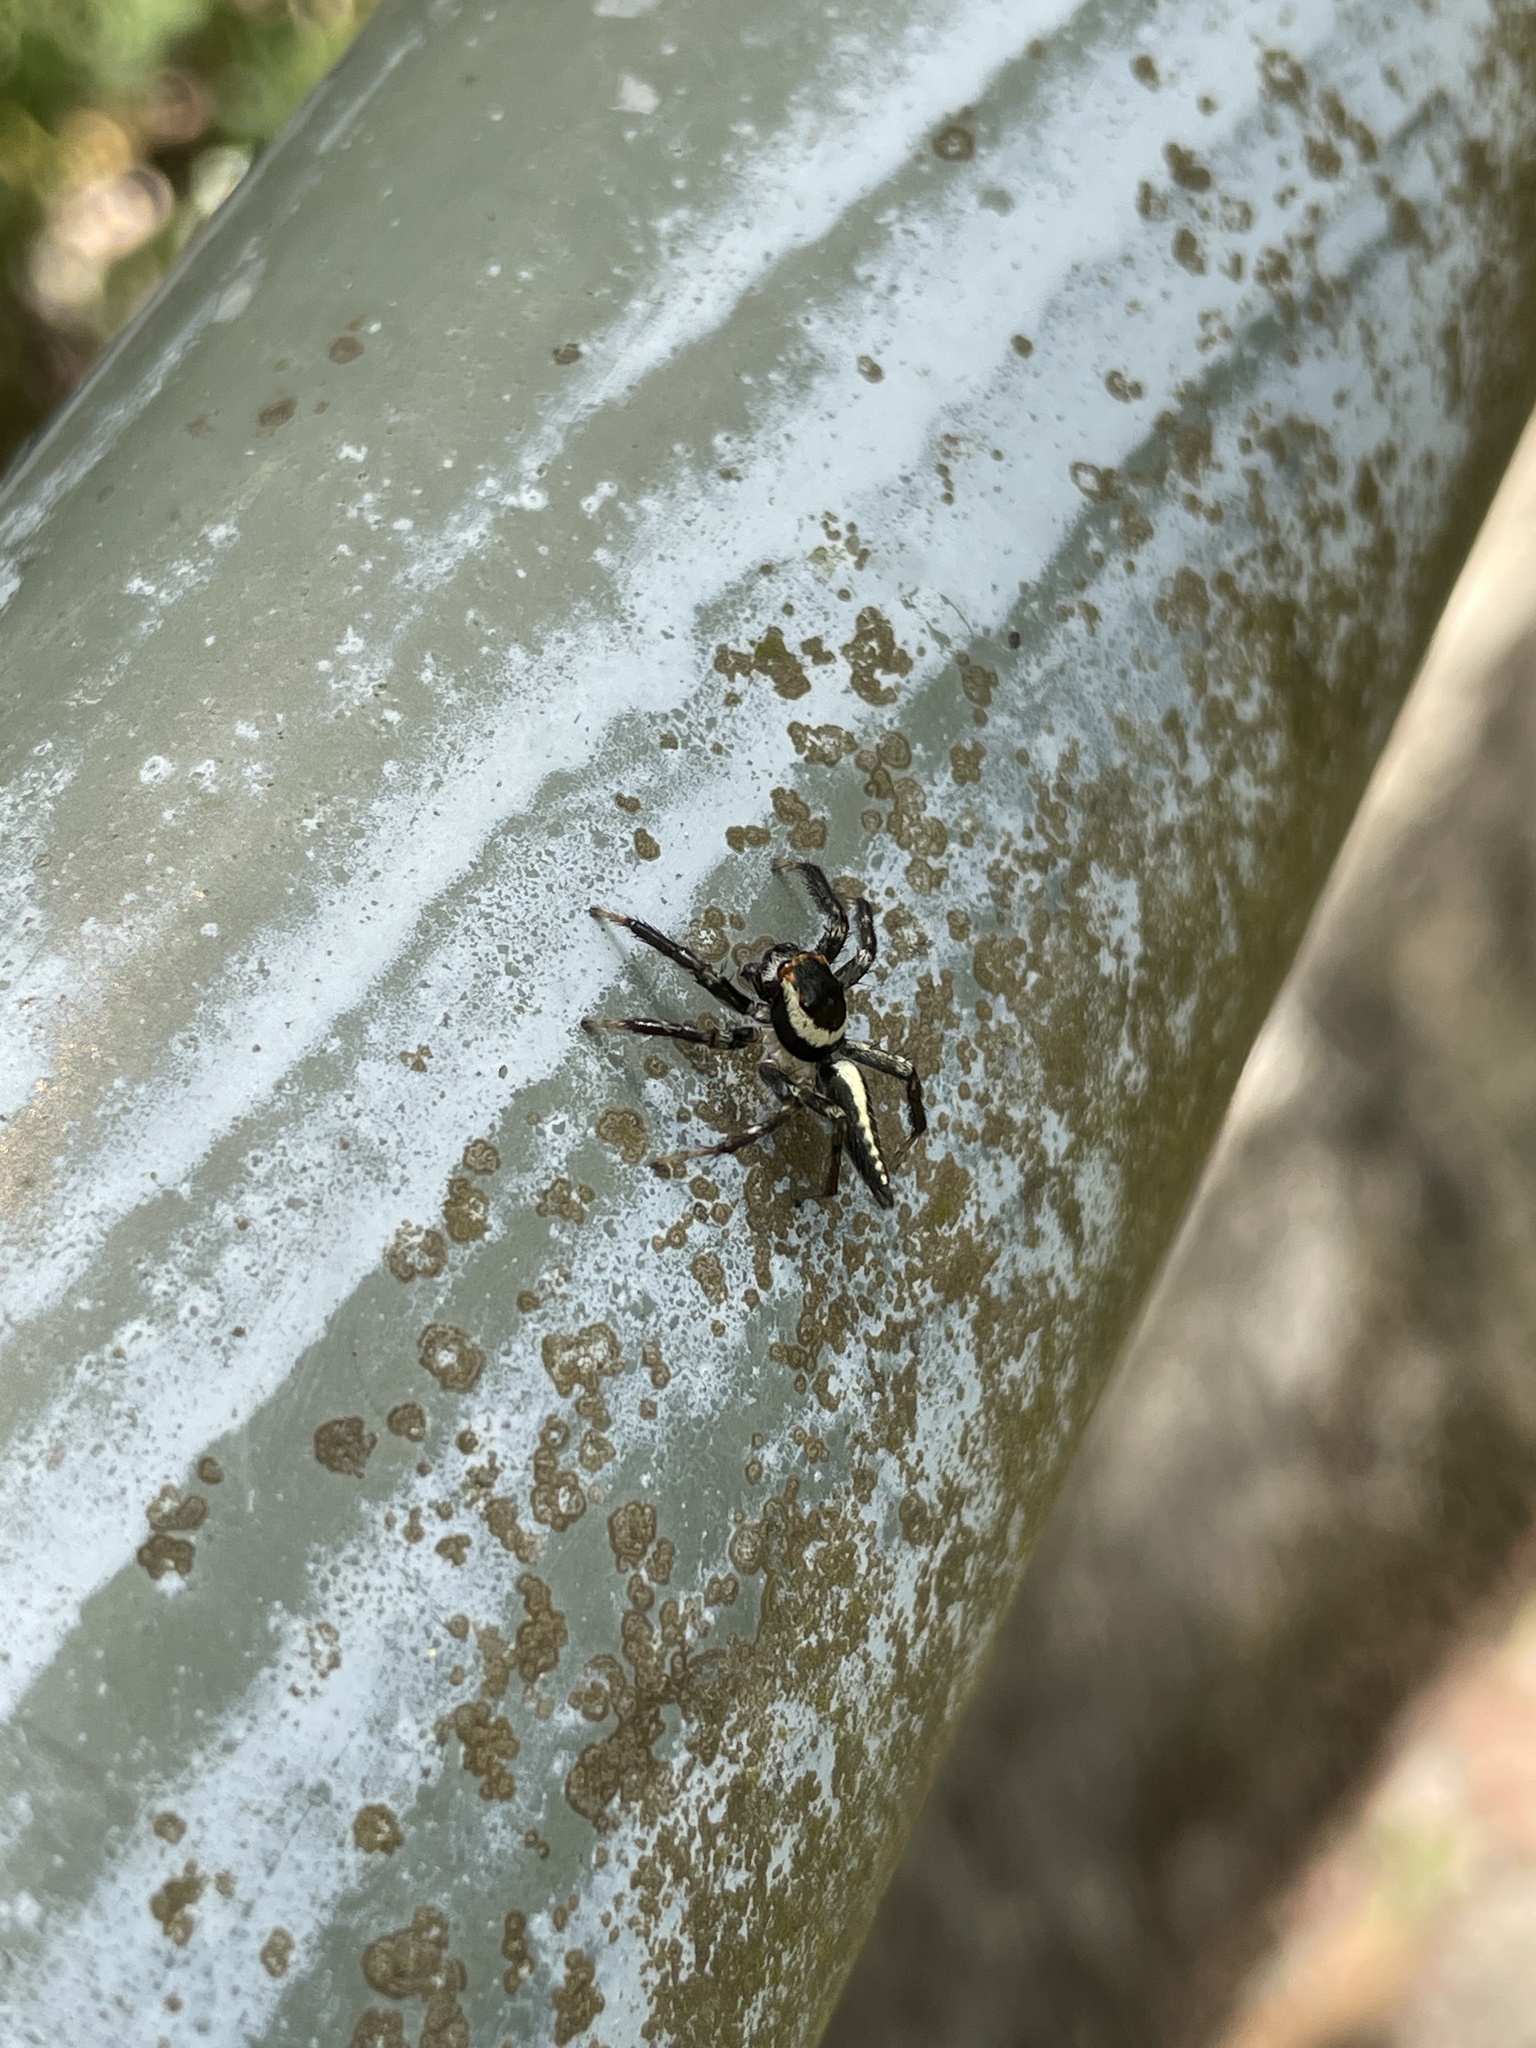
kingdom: Animalia
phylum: Arthropoda
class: Arachnida
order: Araneae
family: Salticidae
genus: Telamonia
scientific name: Telamonia caprina
